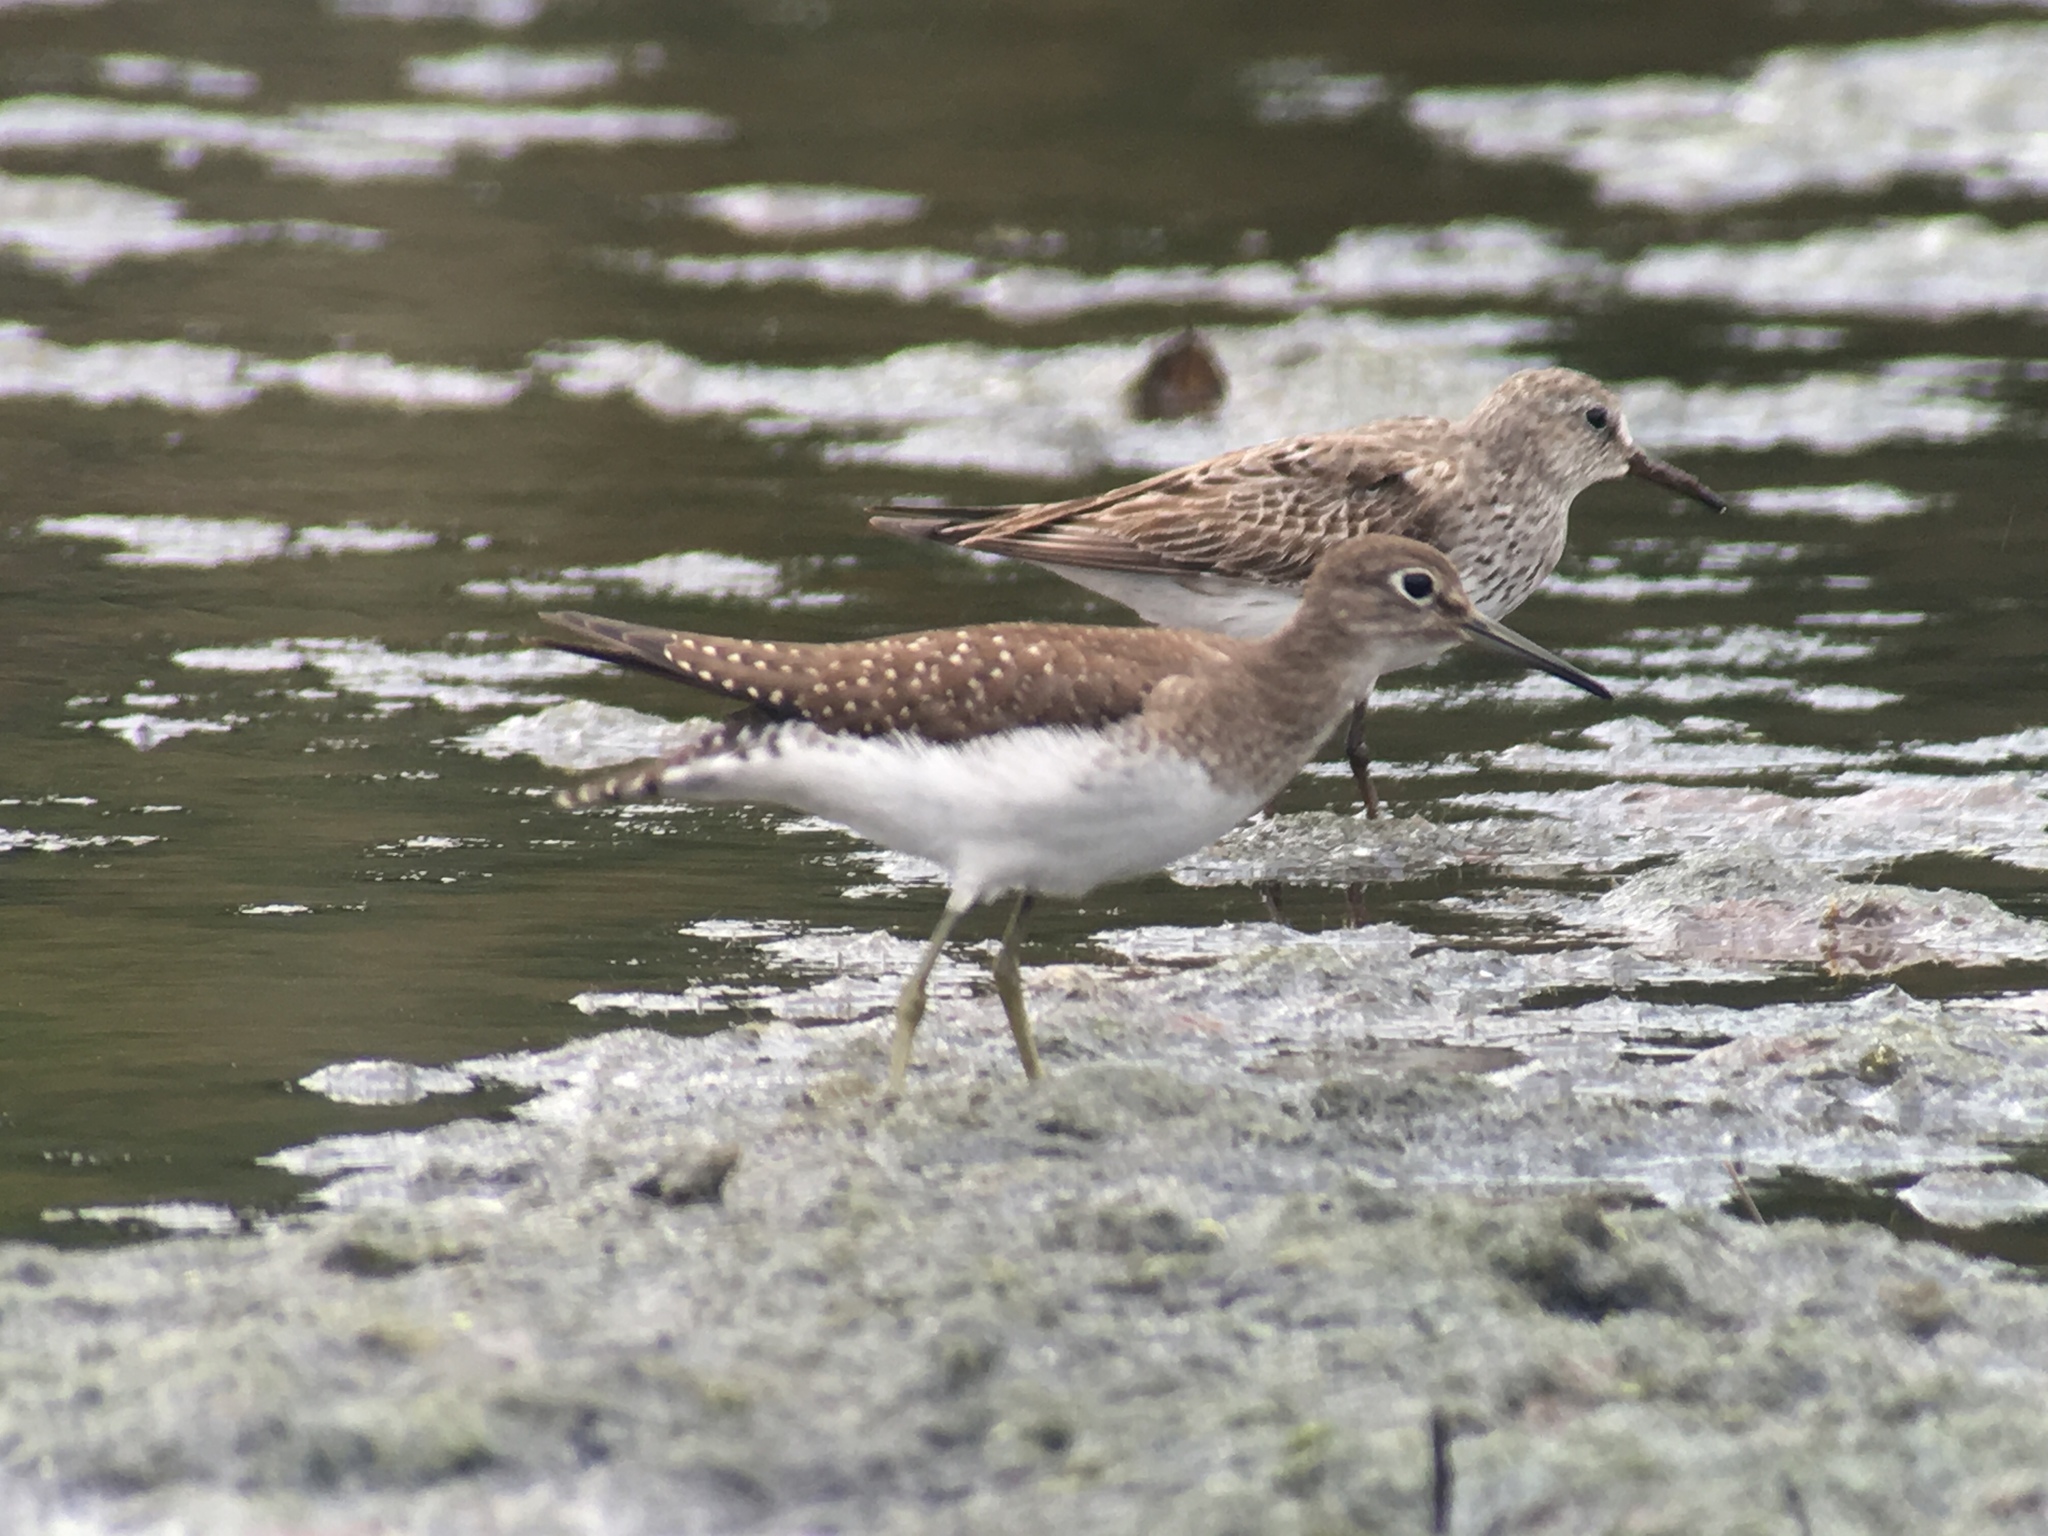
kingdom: Animalia
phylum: Chordata
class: Aves
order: Charadriiformes
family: Scolopacidae
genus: Tringa
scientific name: Tringa solitaria
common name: Solitary sandpiper
